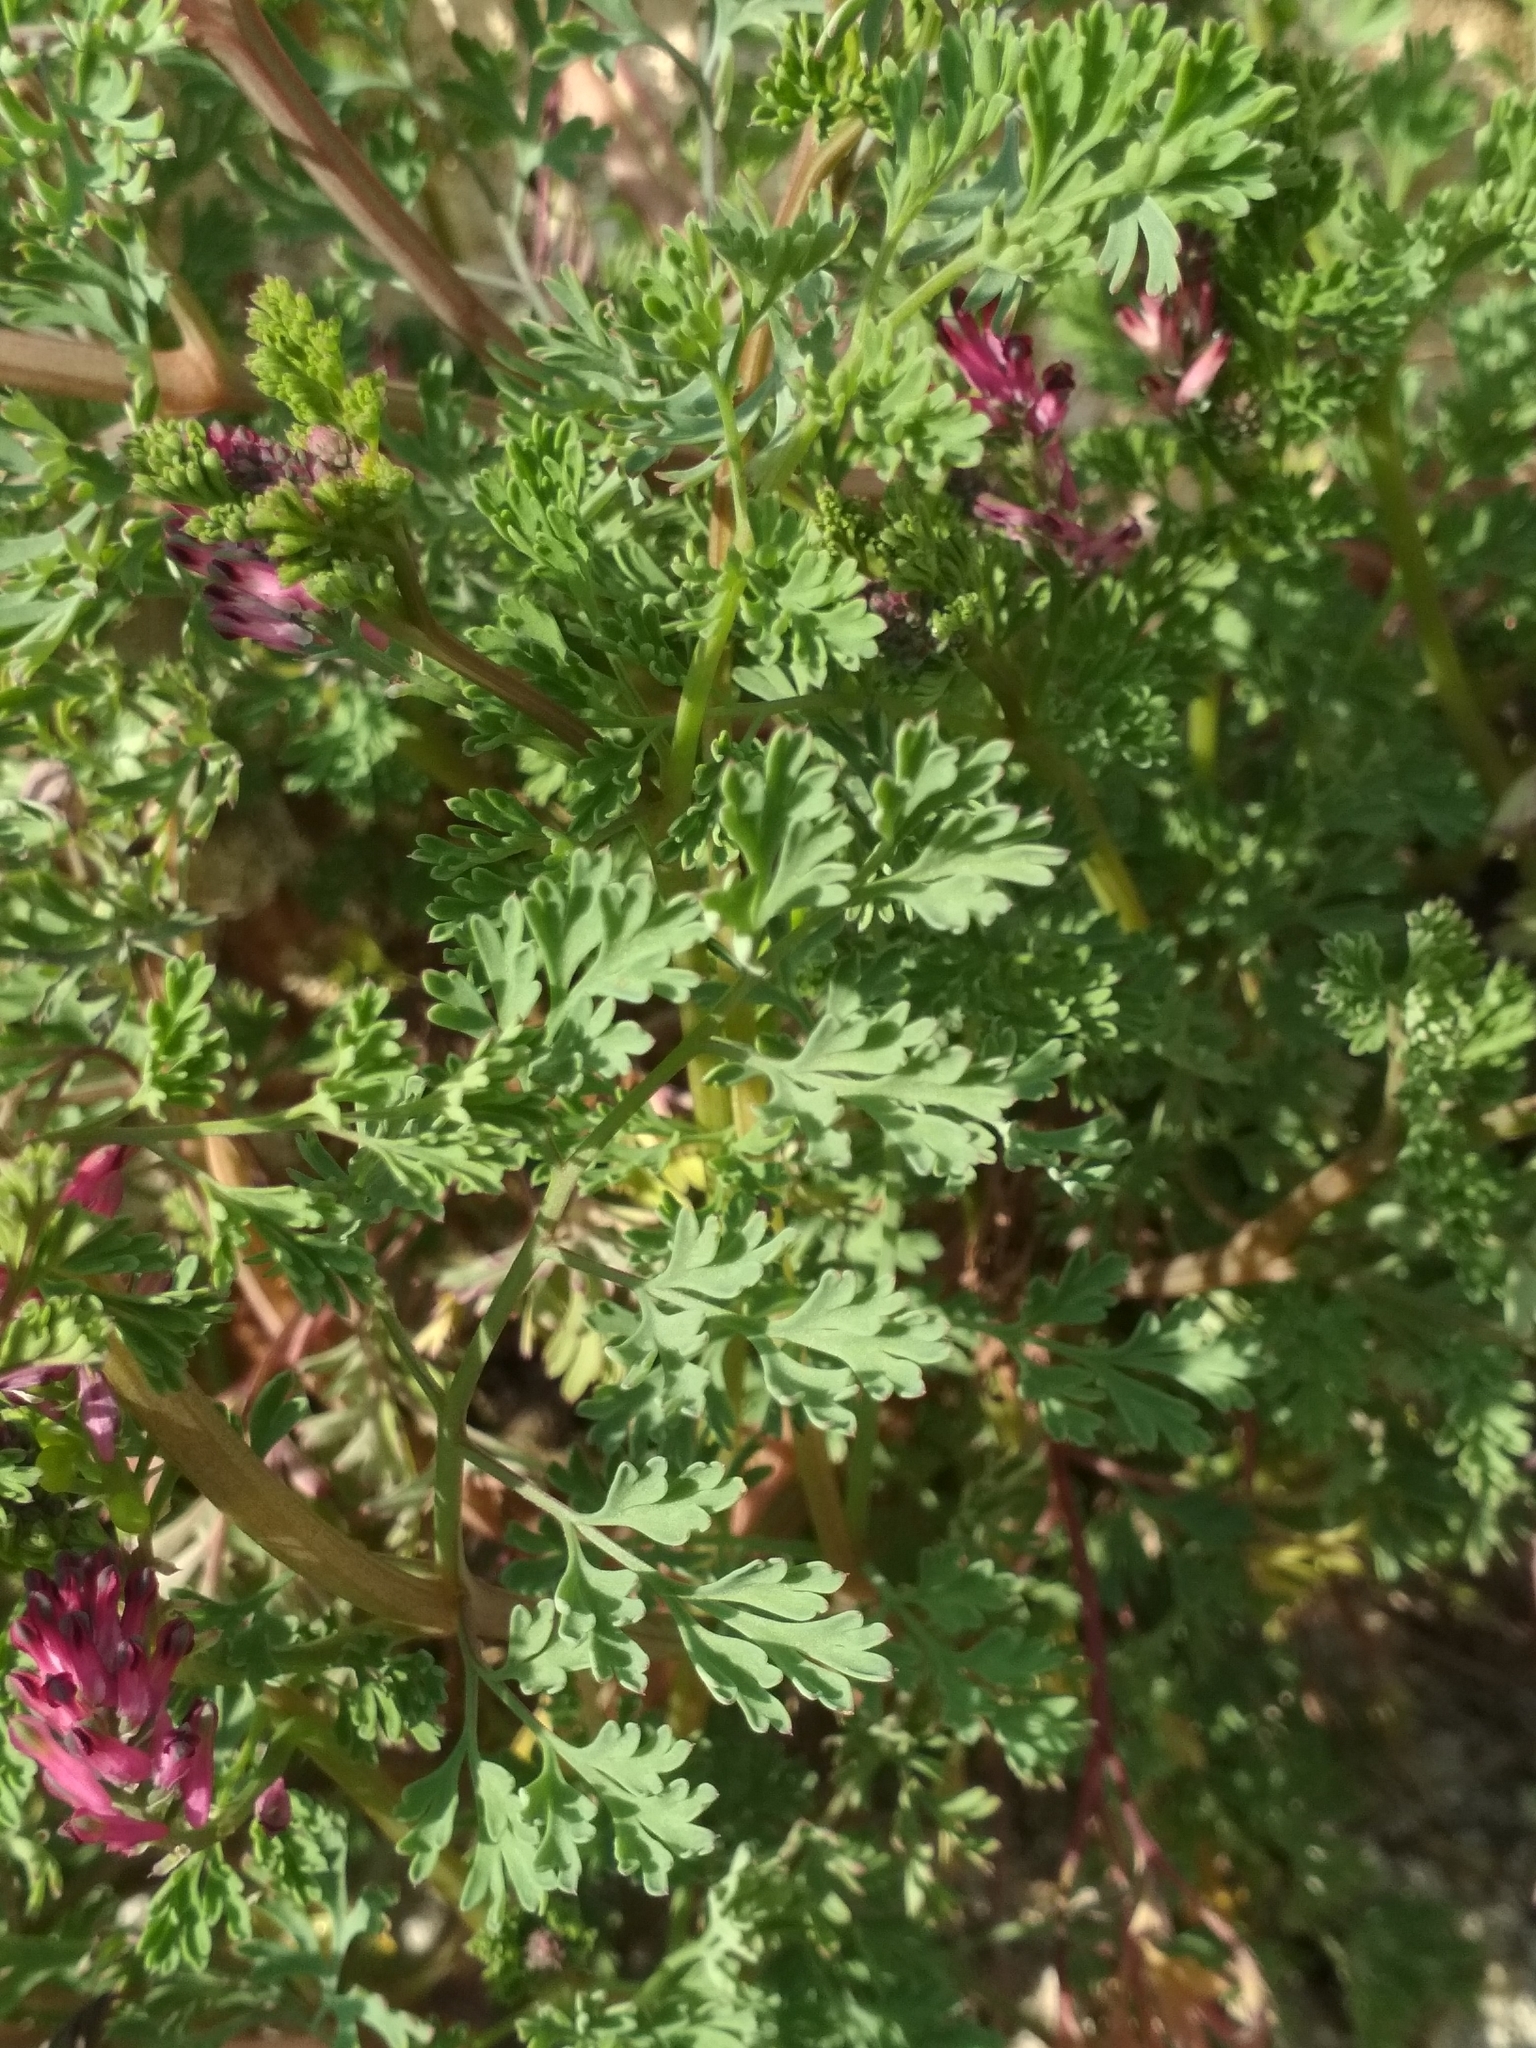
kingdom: Plantae
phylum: Tracheophyta
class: Magnoliopsida
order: Ranunculales
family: Papaveraceae
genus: Fumaria
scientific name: Fumaria officinalis
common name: Common fumitory
